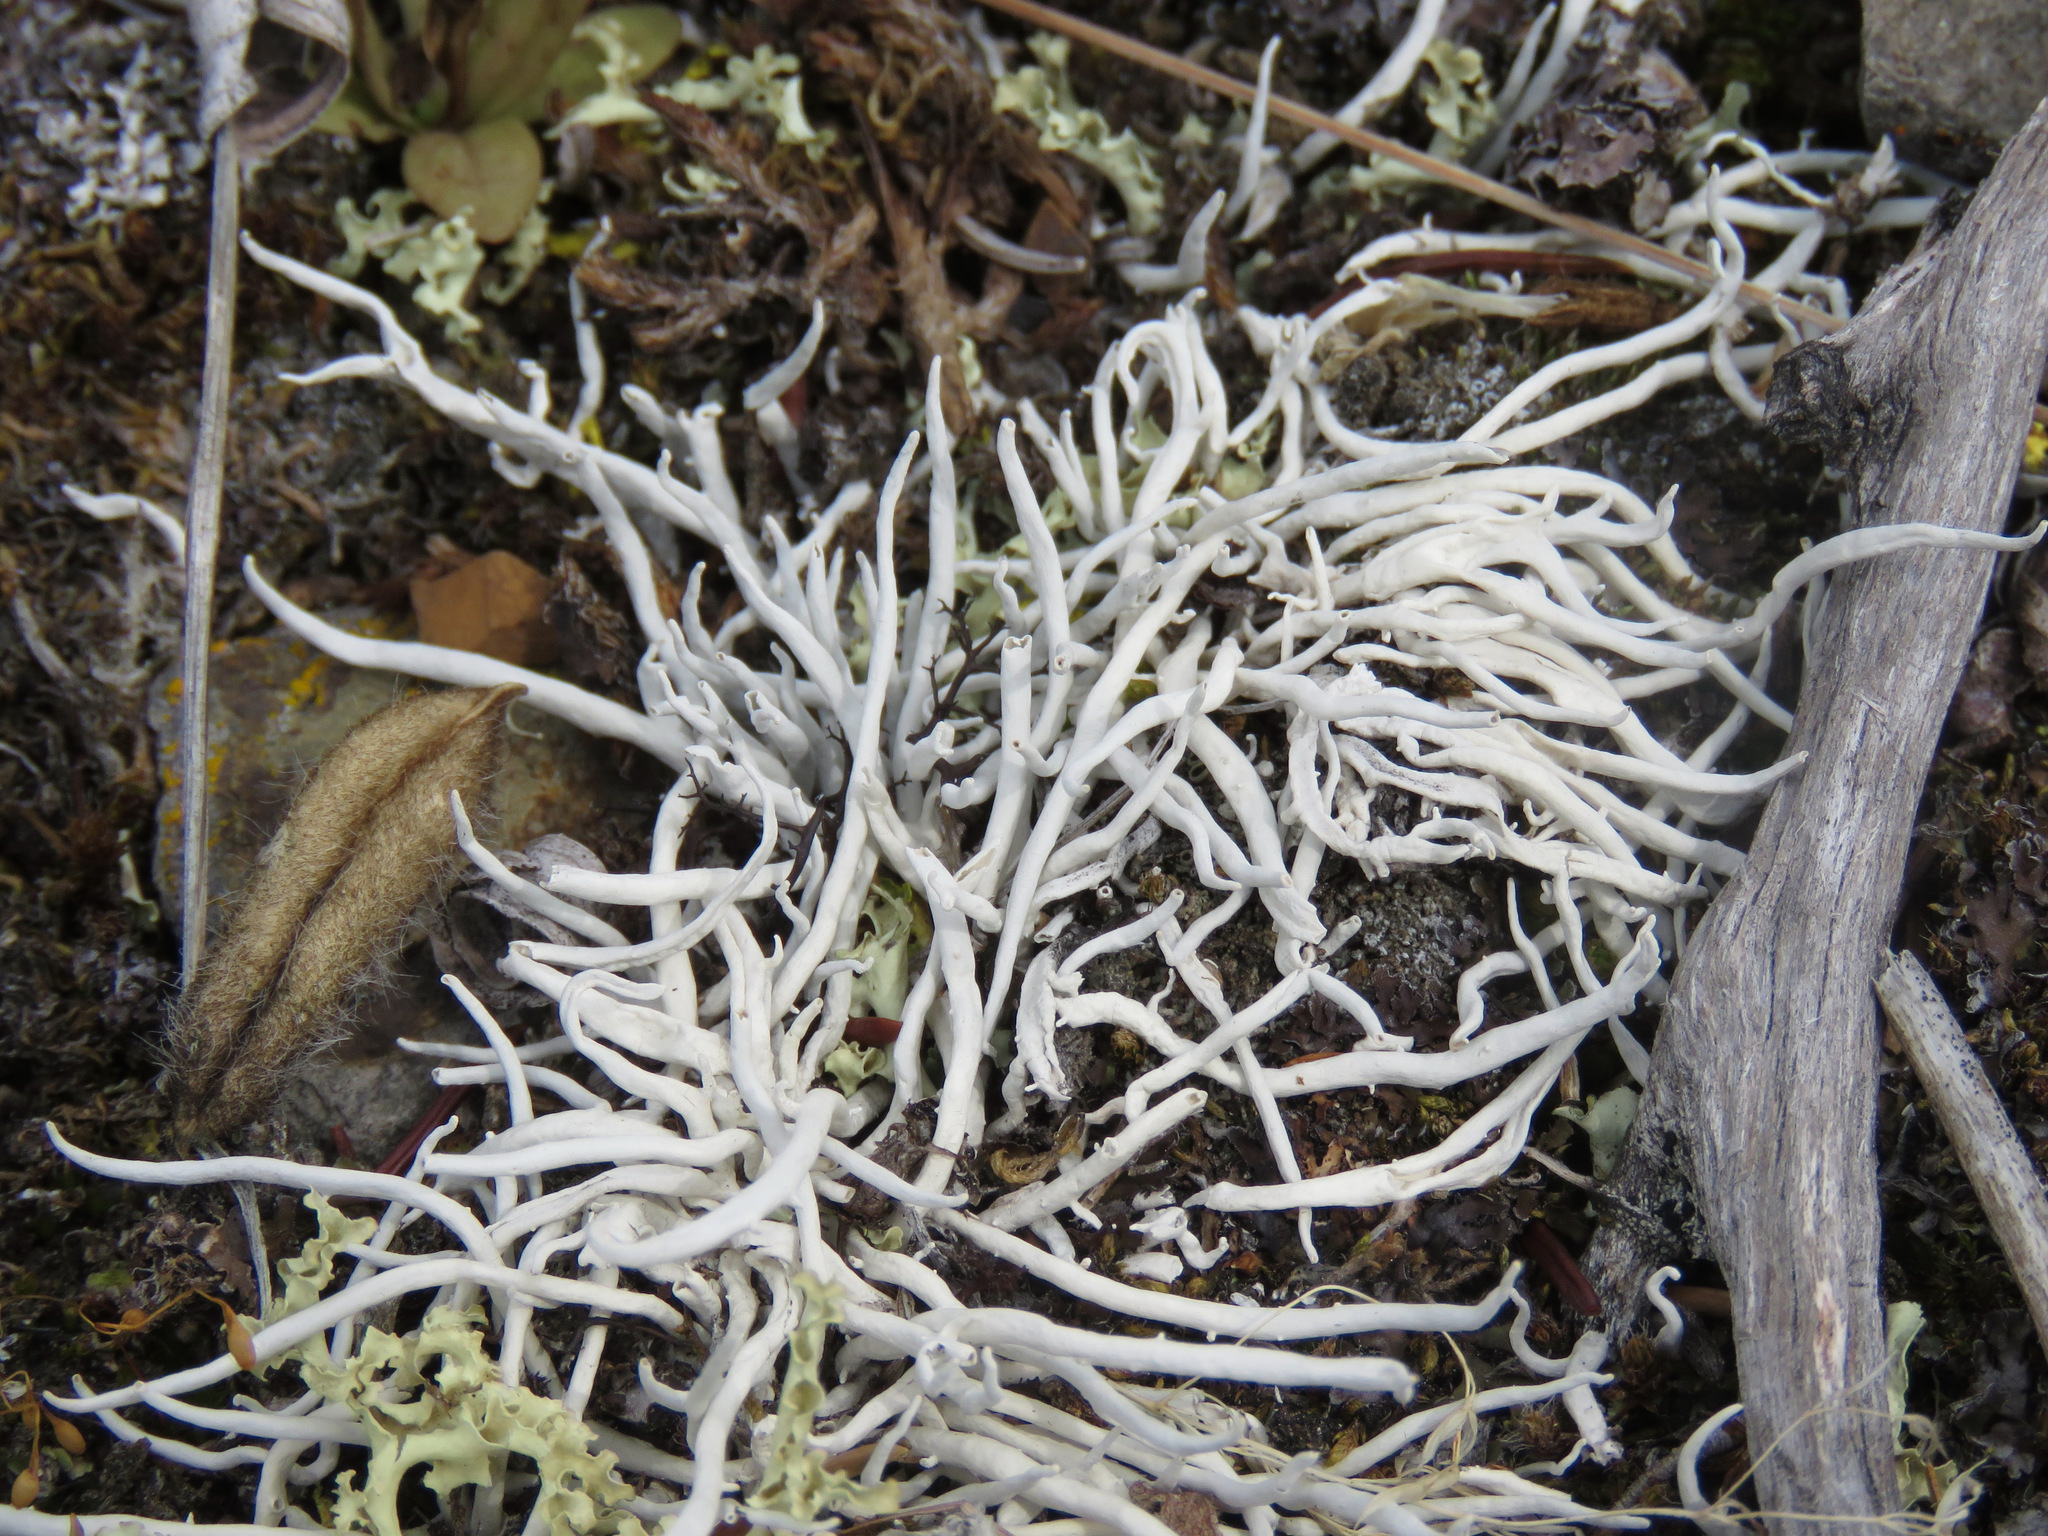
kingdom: Fungi
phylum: Ascomycota
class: Lecanoromycetes
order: Pertusariales
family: Icmadophilaceae
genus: Thamnolia
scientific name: Thamnolia vermicularis
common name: Whiteworm lichen
